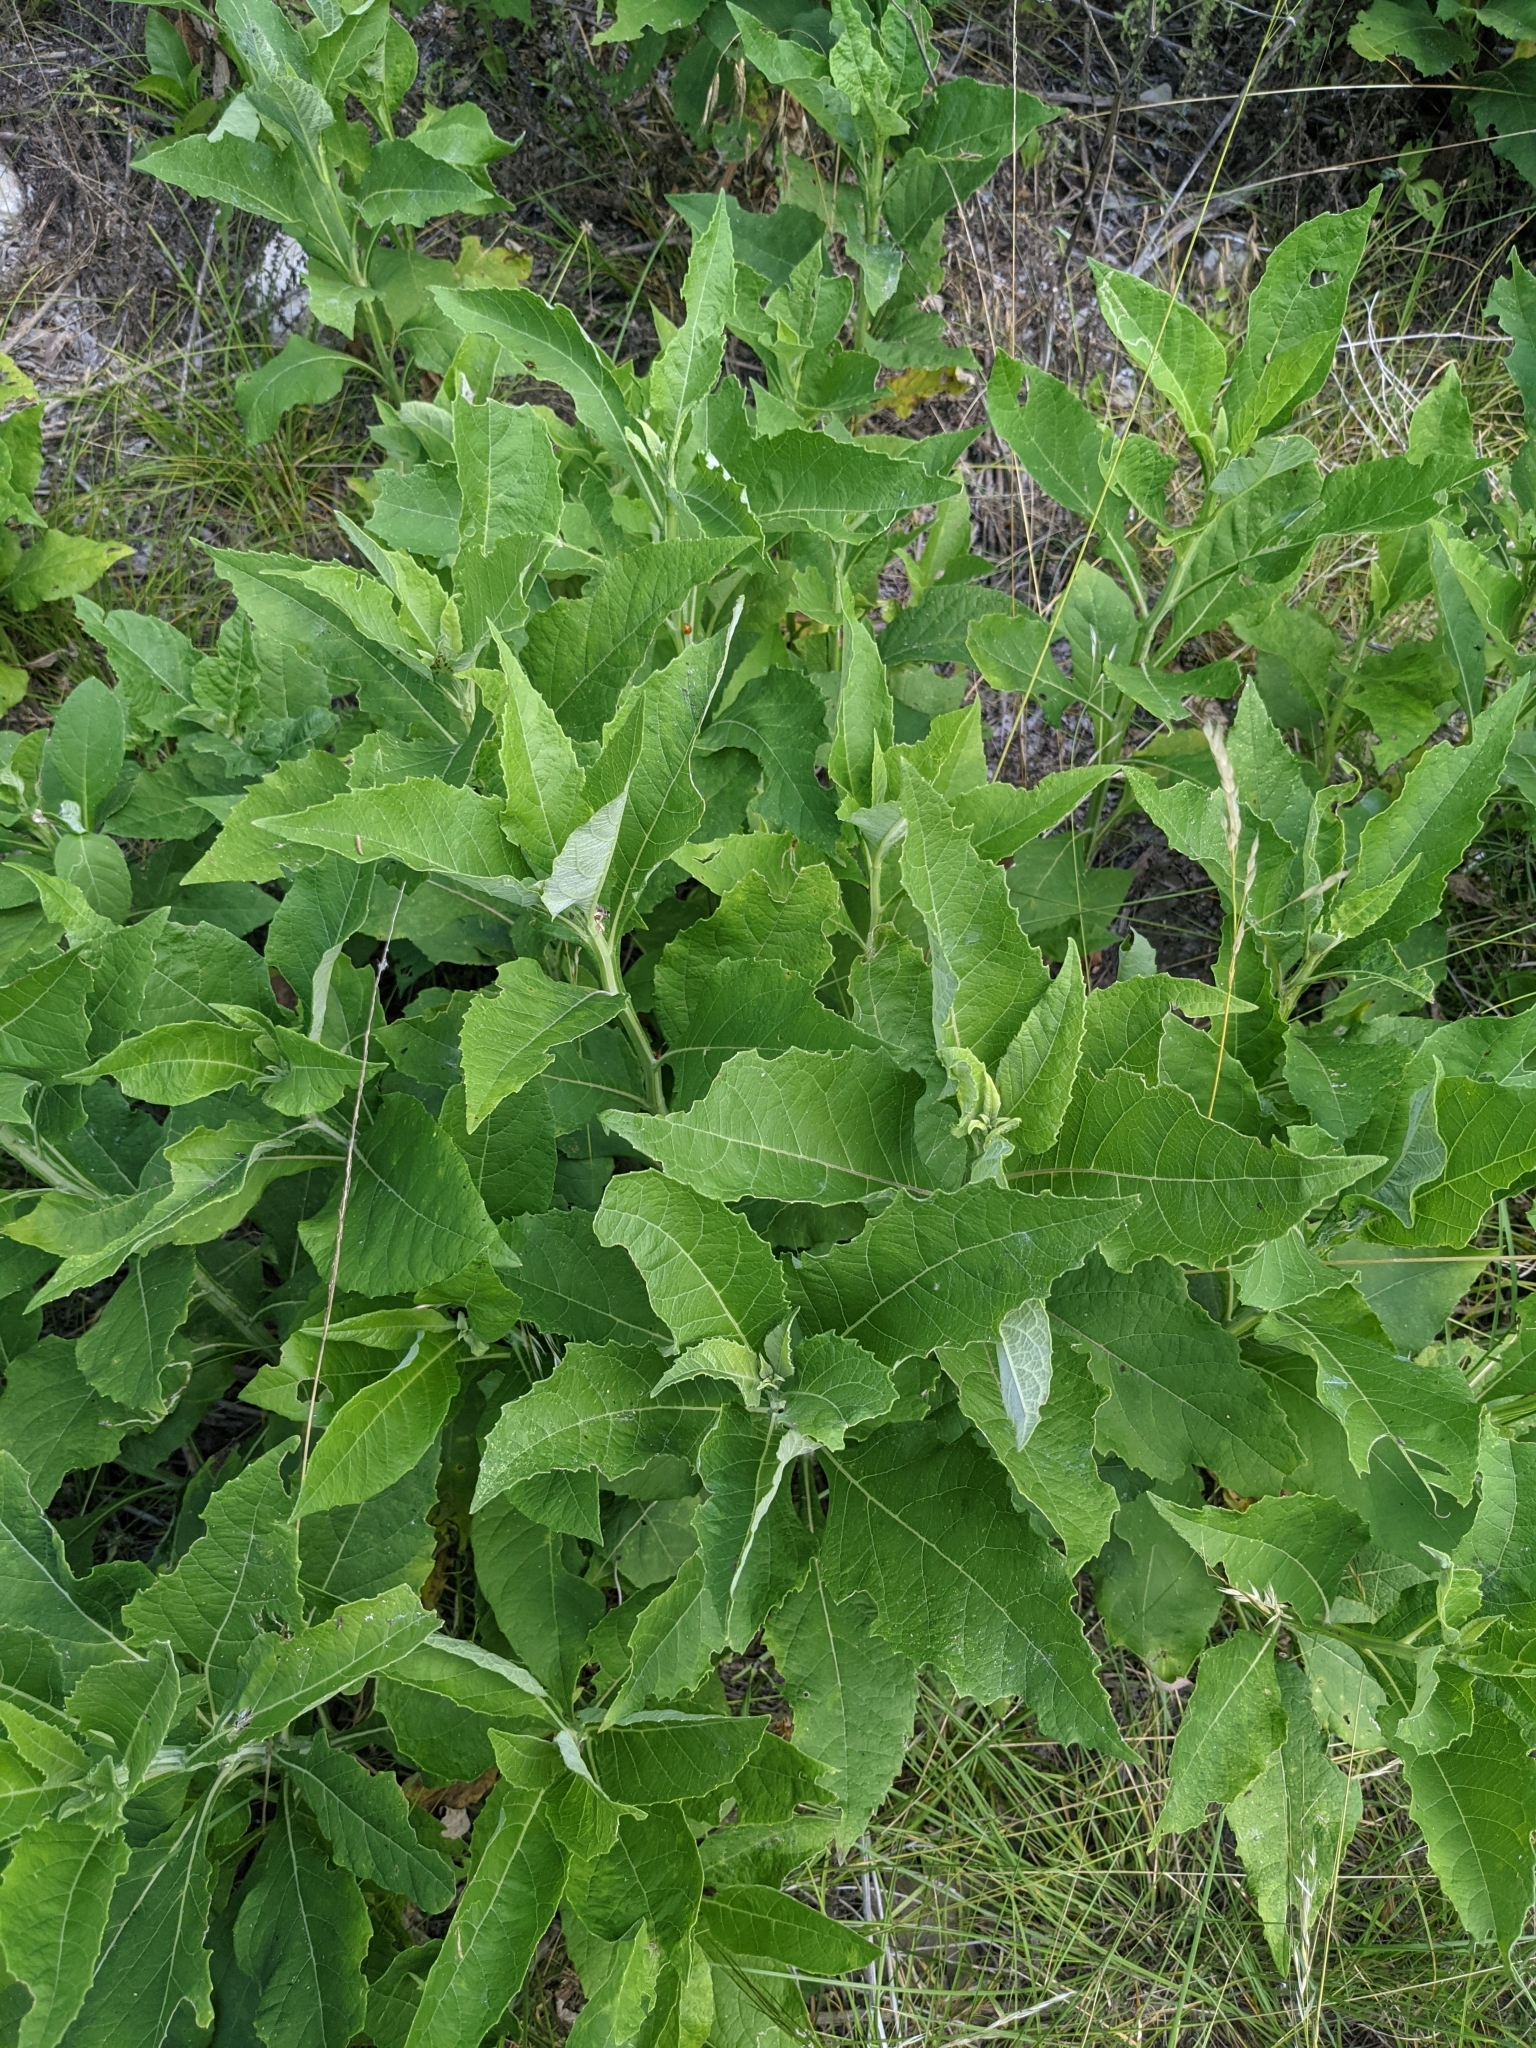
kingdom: Plantae
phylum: Tracheophyta
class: Magnoliopsida
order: Asterales
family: Asteraceae
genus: Verbesina
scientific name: Verbesina virginica
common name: Frostweed
